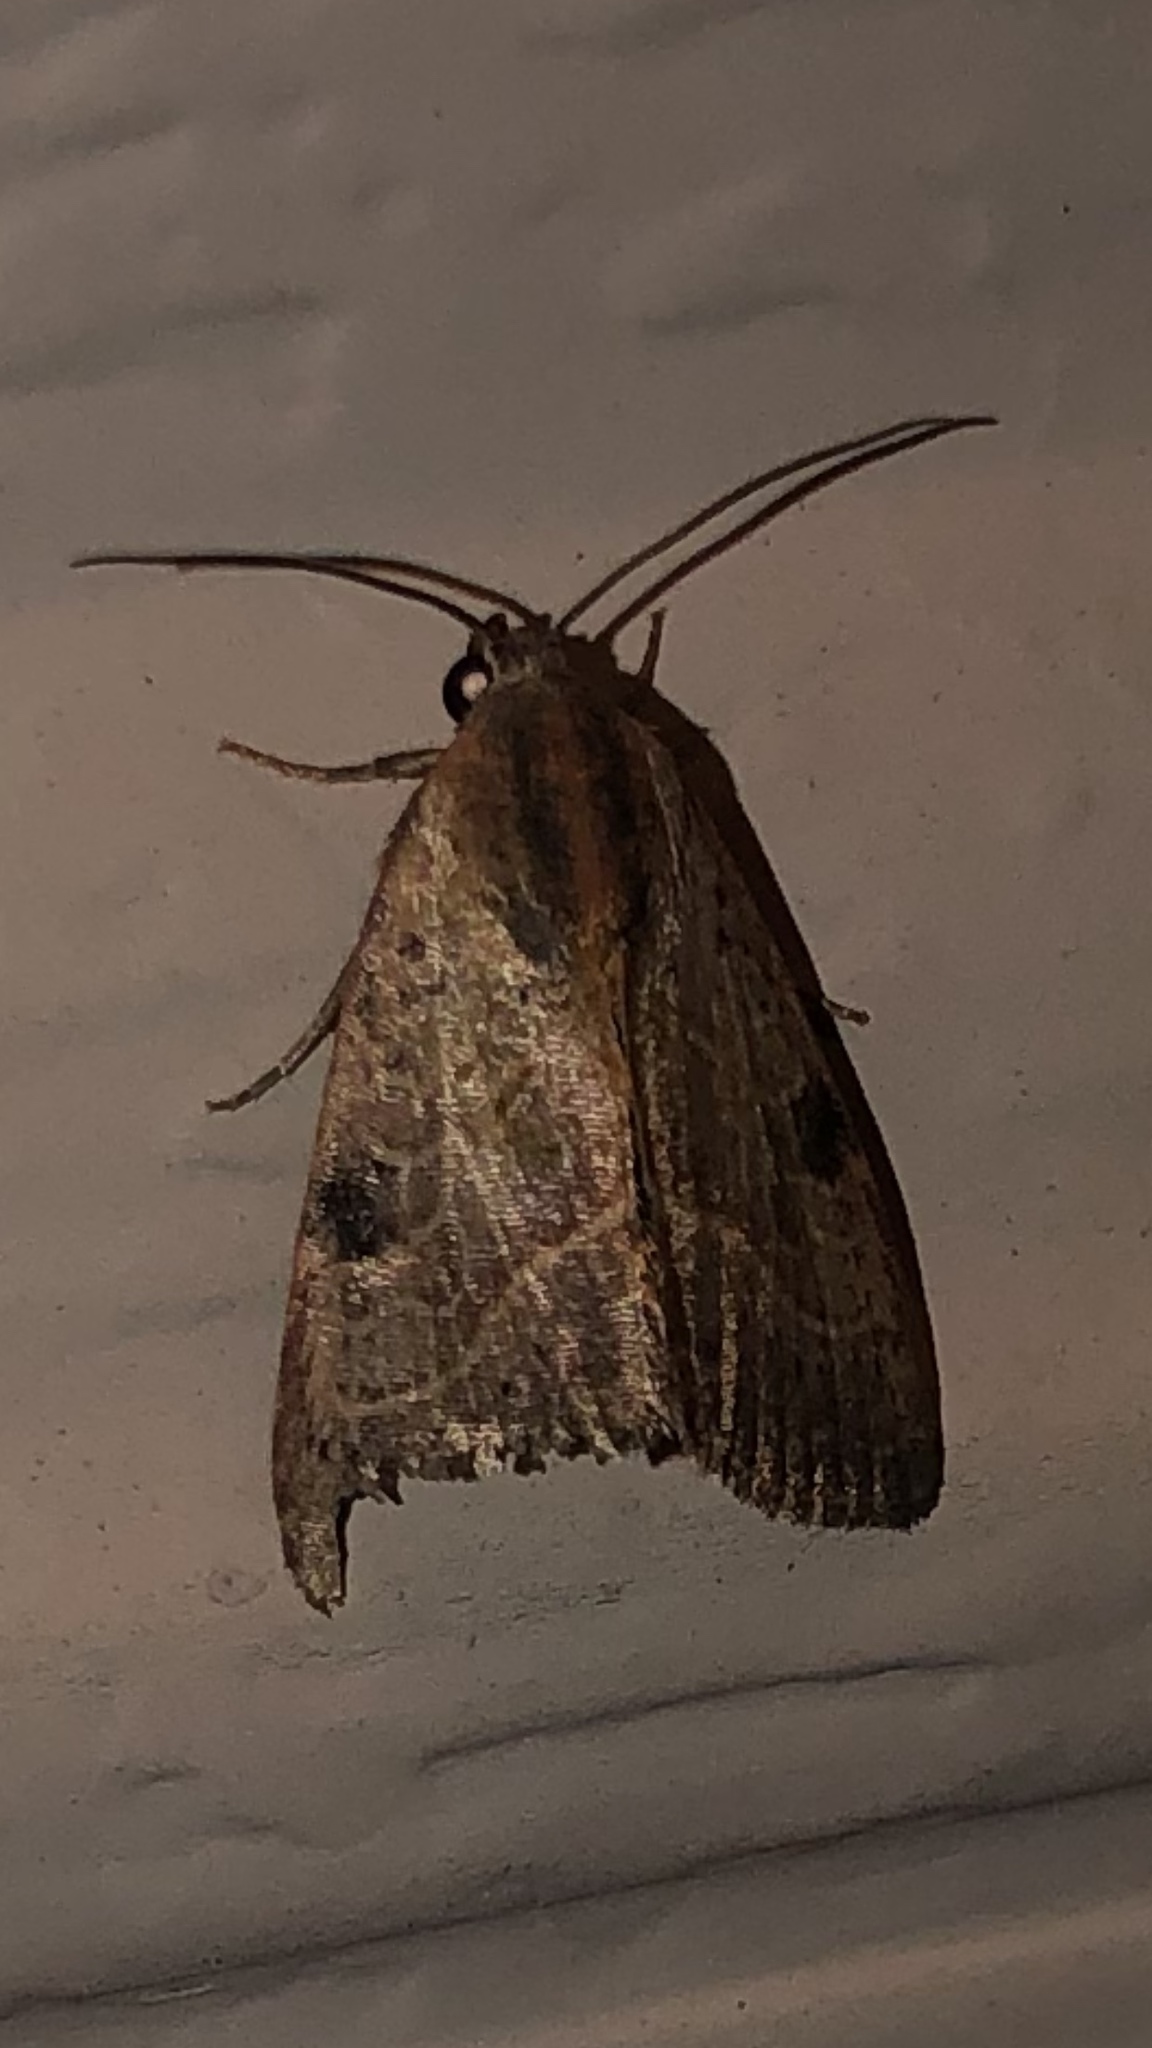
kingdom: Animalia
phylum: Arthropoda
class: Insecta
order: Lepidoptera
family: Noctuidae
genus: Galgula
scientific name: Galgula partita
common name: Wedgeling
